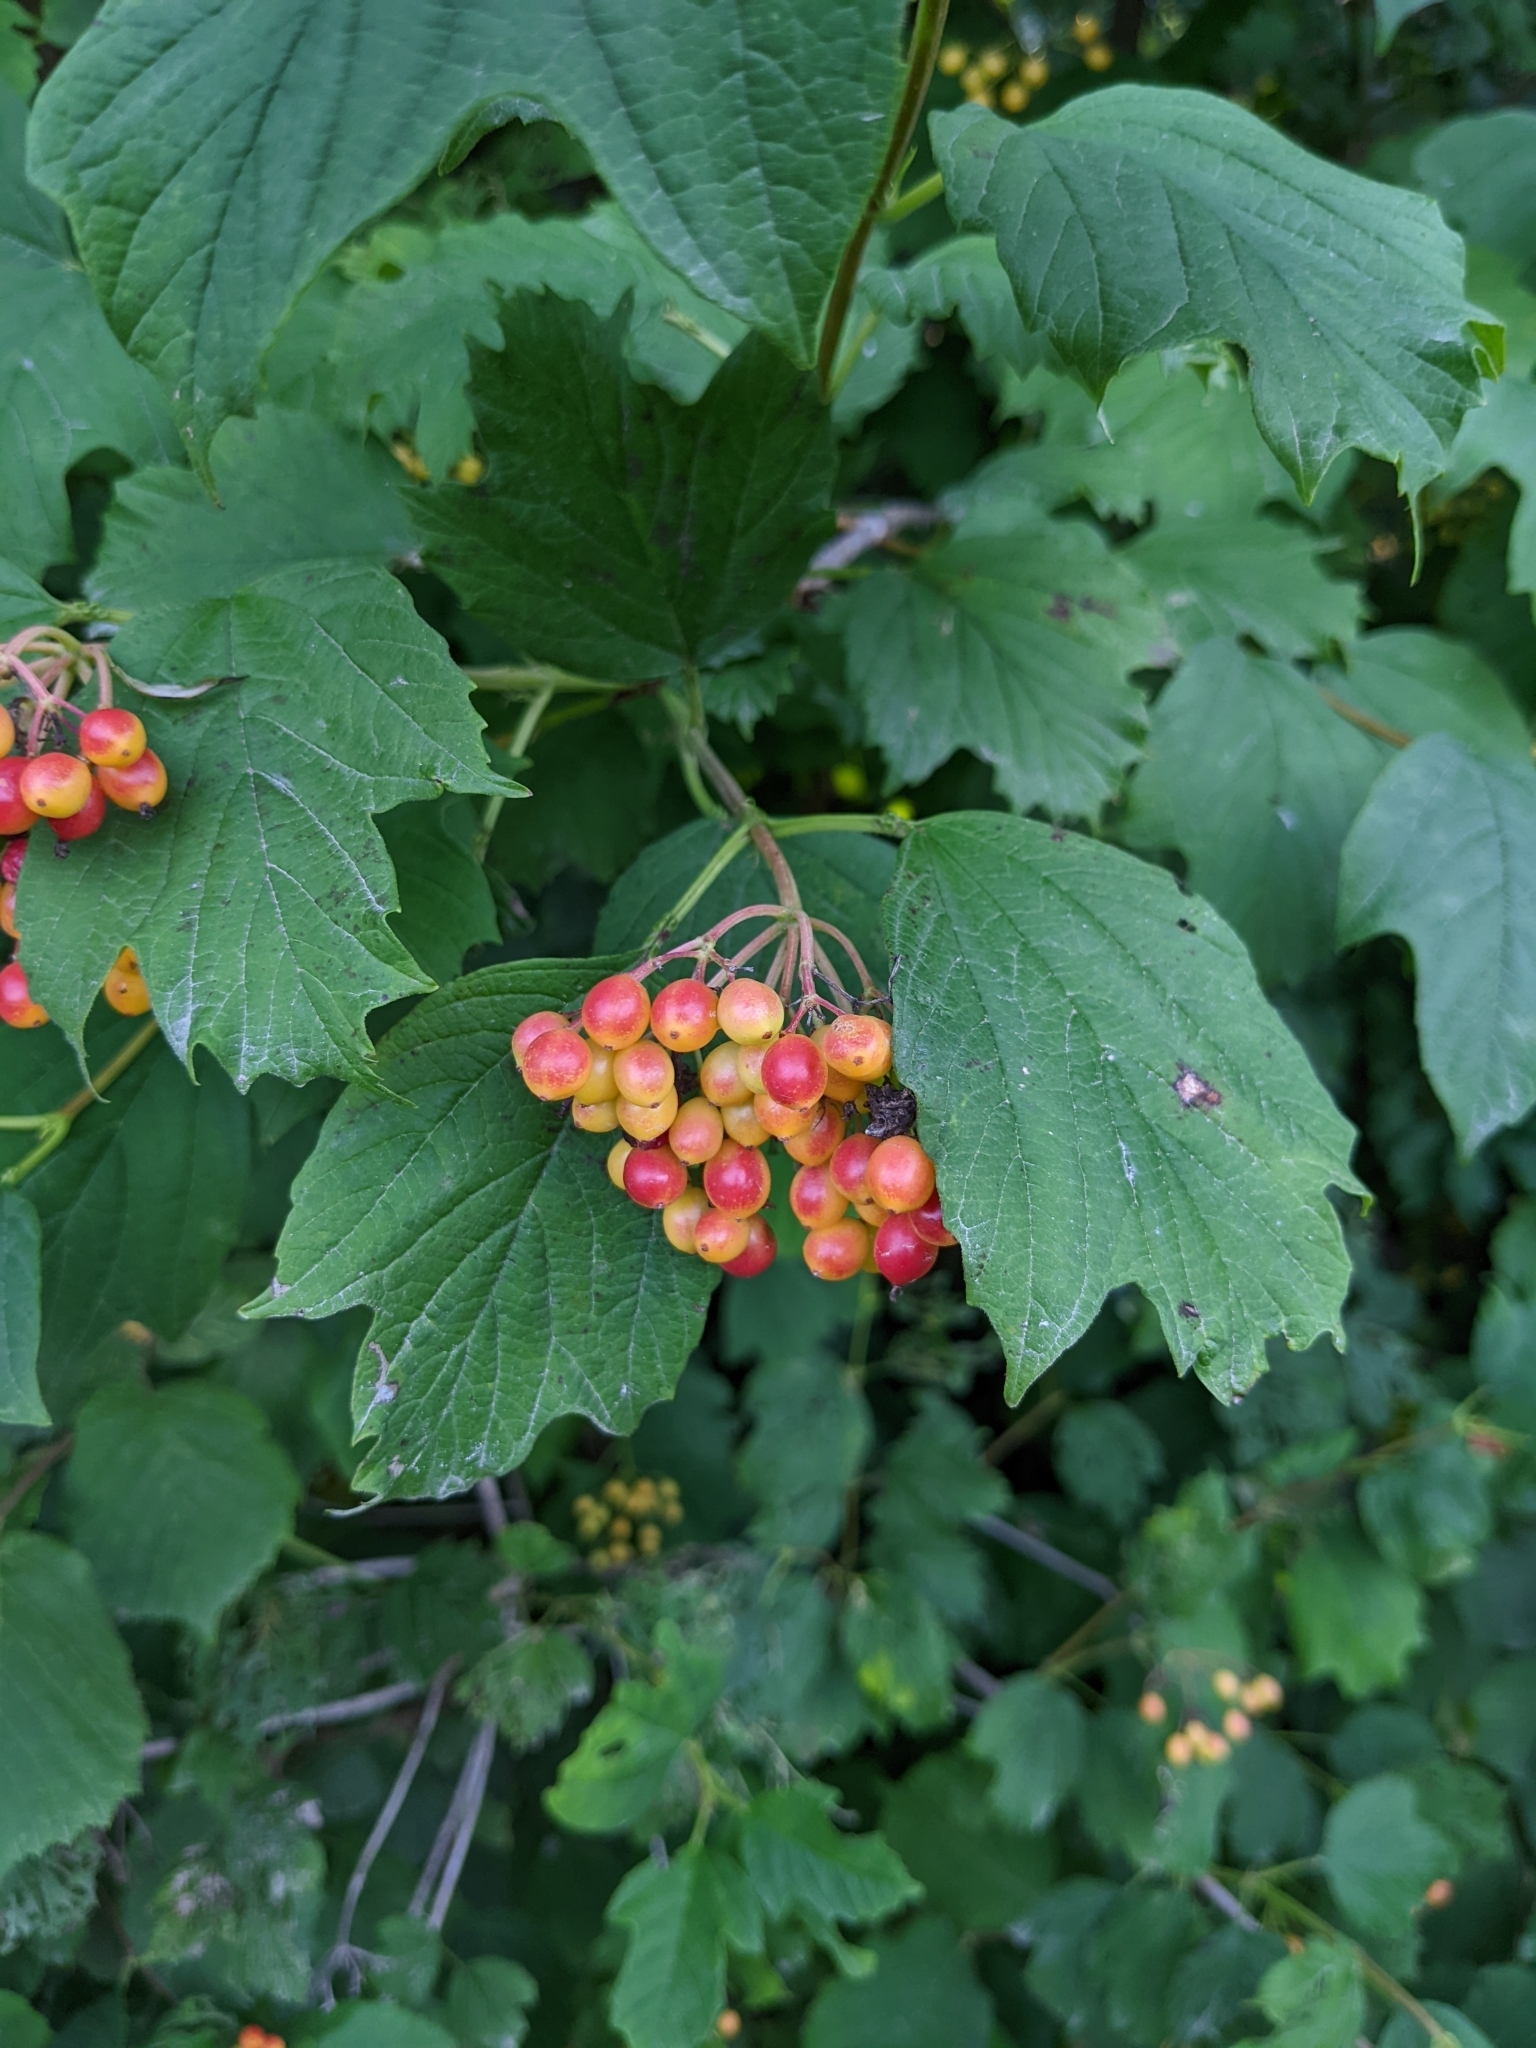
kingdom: Plantae
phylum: Tracheophyta
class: Magnoliopsida
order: Dipsacales
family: Viburnaceae
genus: Viburnum
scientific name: Viburnum opulus
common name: Guelder-rose
